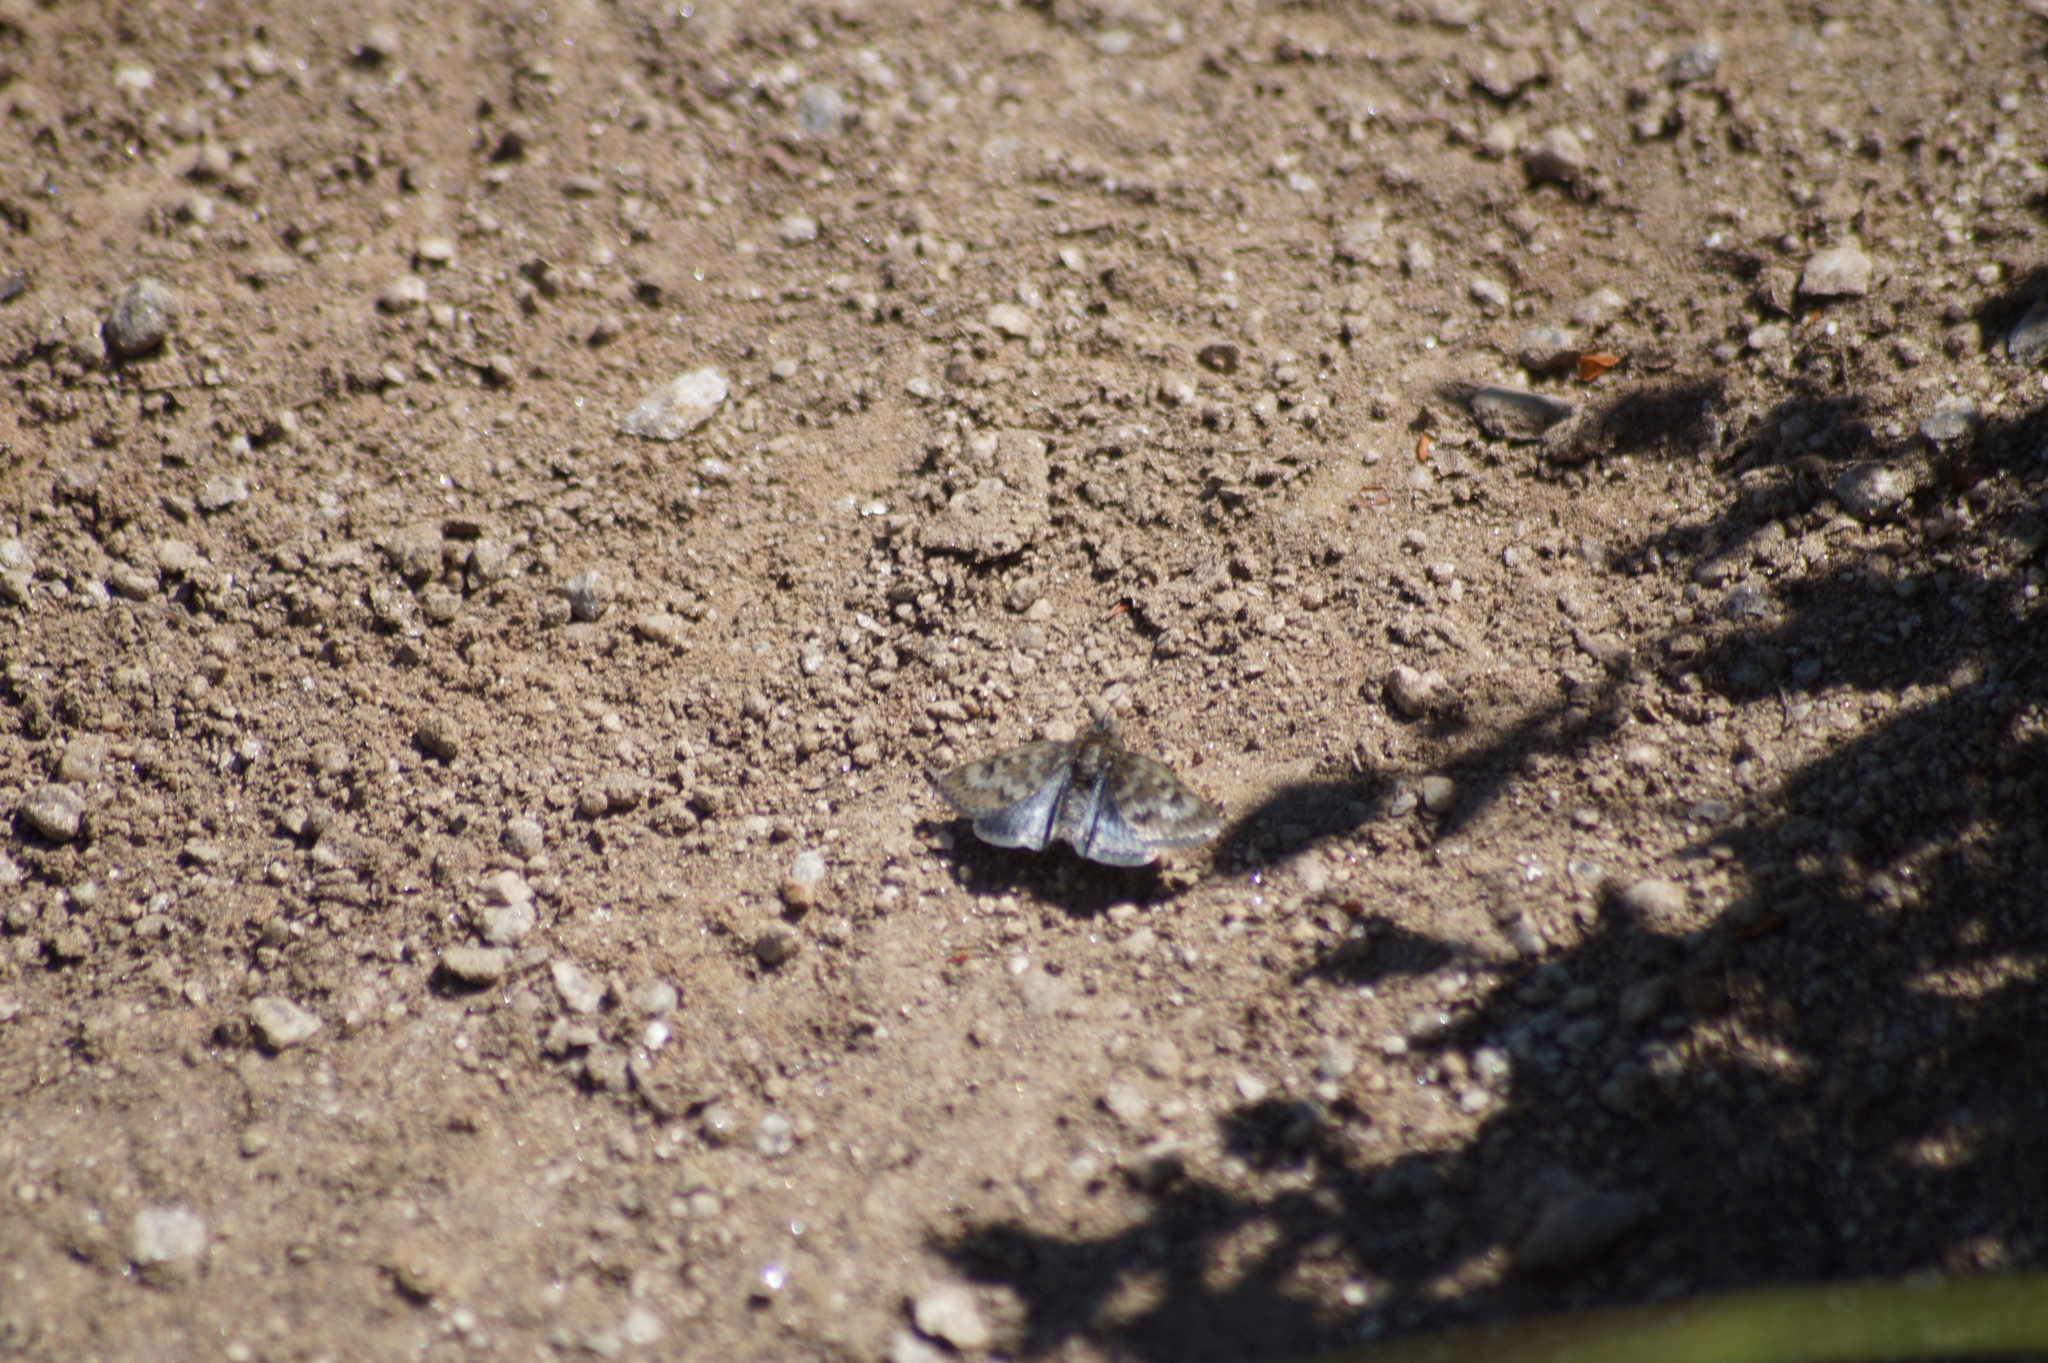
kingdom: Animalia
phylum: Arthropoda
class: Insecta
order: Lepidoptera
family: Crambidae
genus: Metaxmeste
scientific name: Metaxmeste phrygialis
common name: Black mountain pearl
